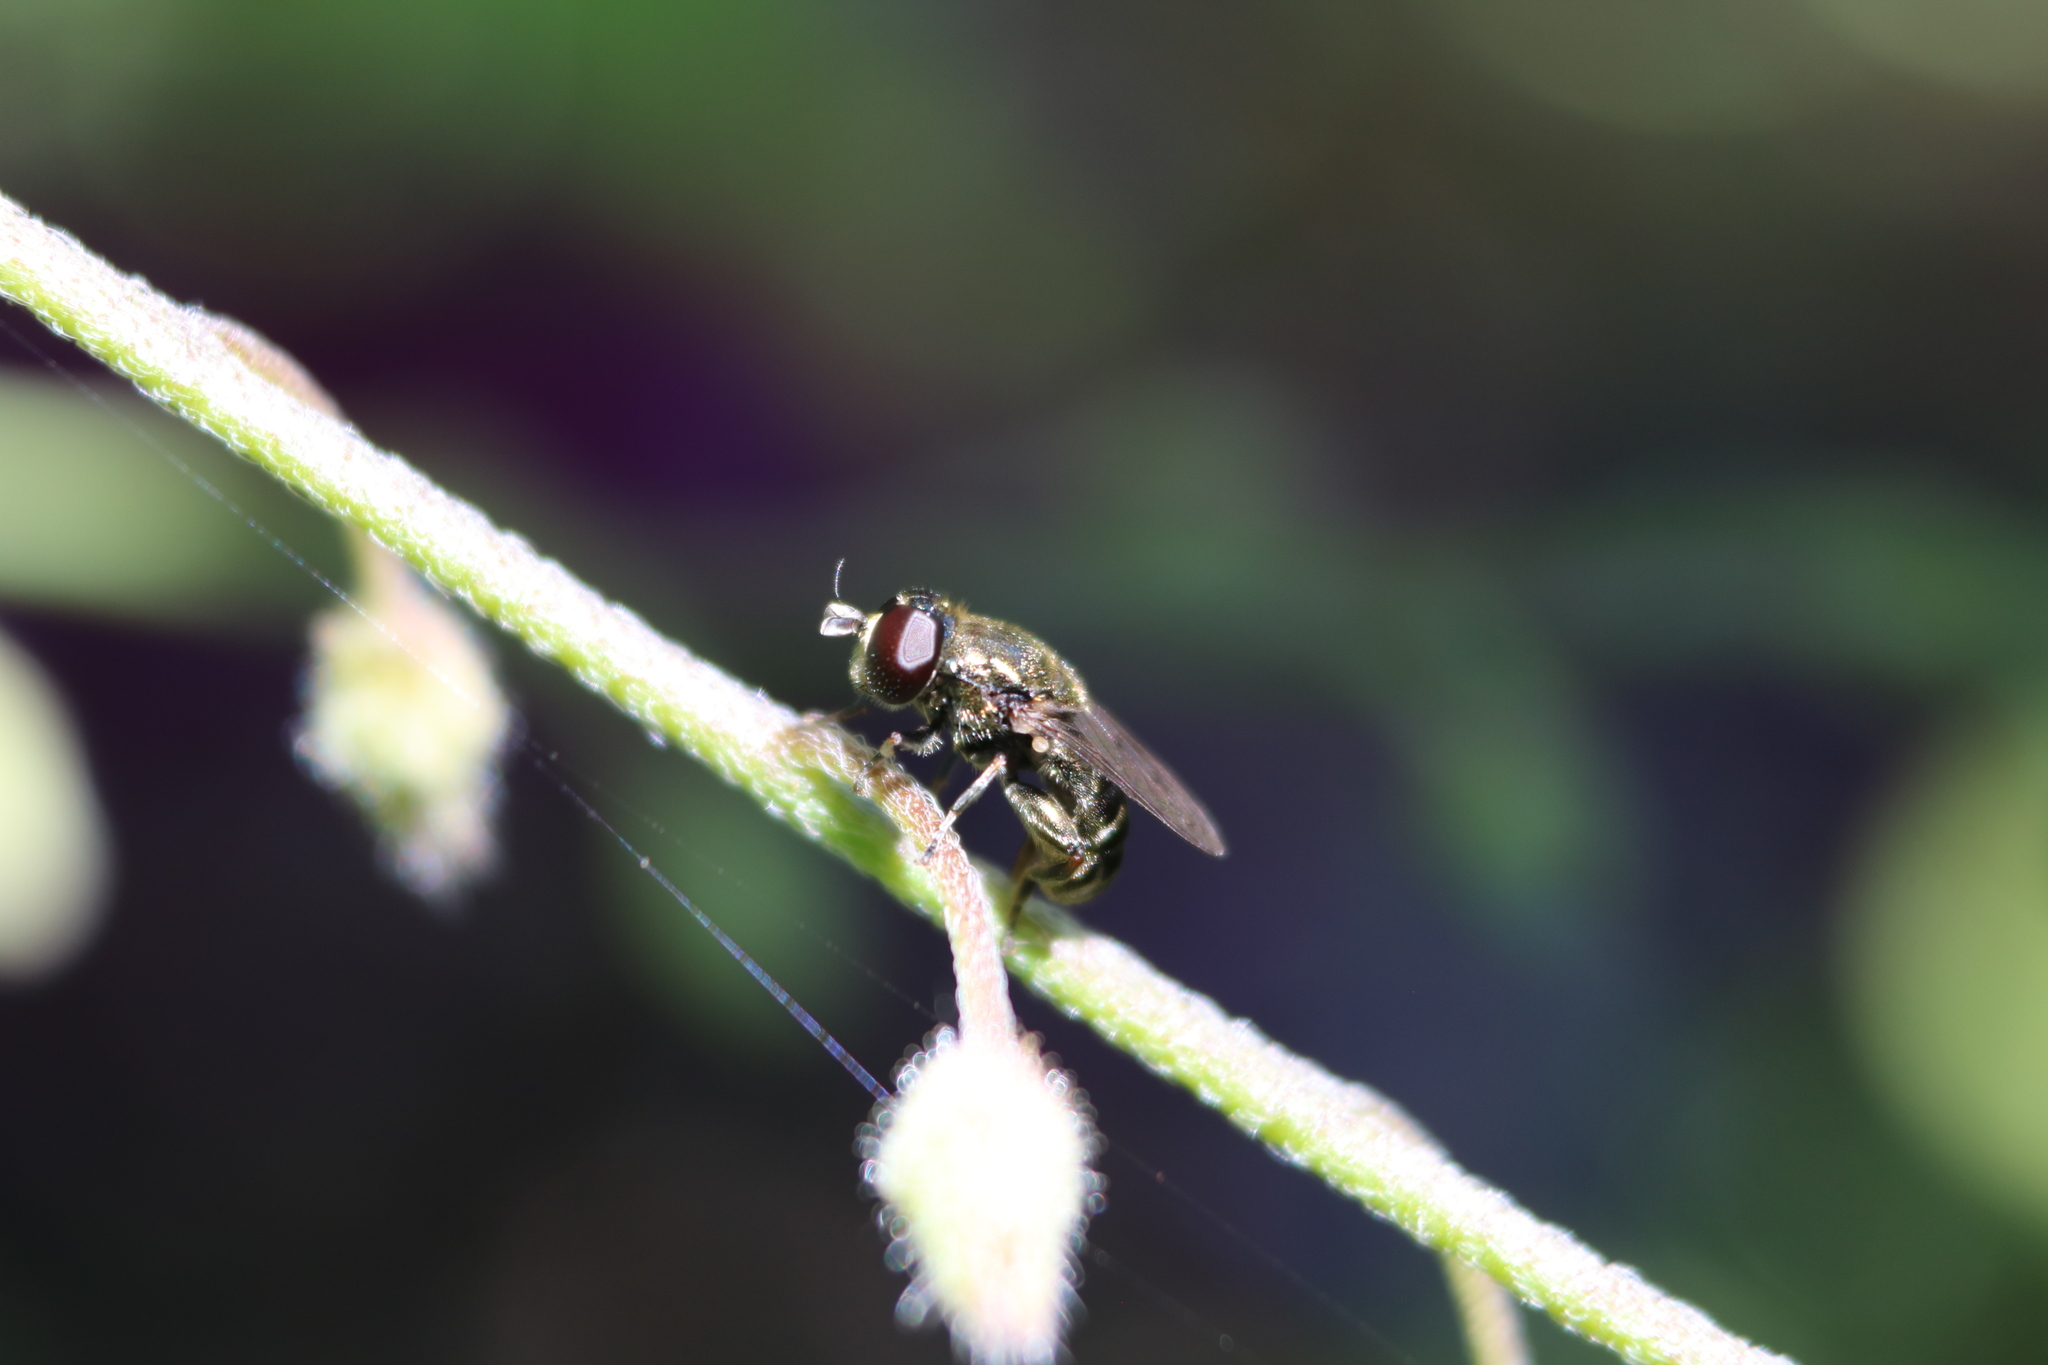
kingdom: Animalia
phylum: Arthropoda
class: Insecta
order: Diptera
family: Syrphidae
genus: Eumerus
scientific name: Eumerus
